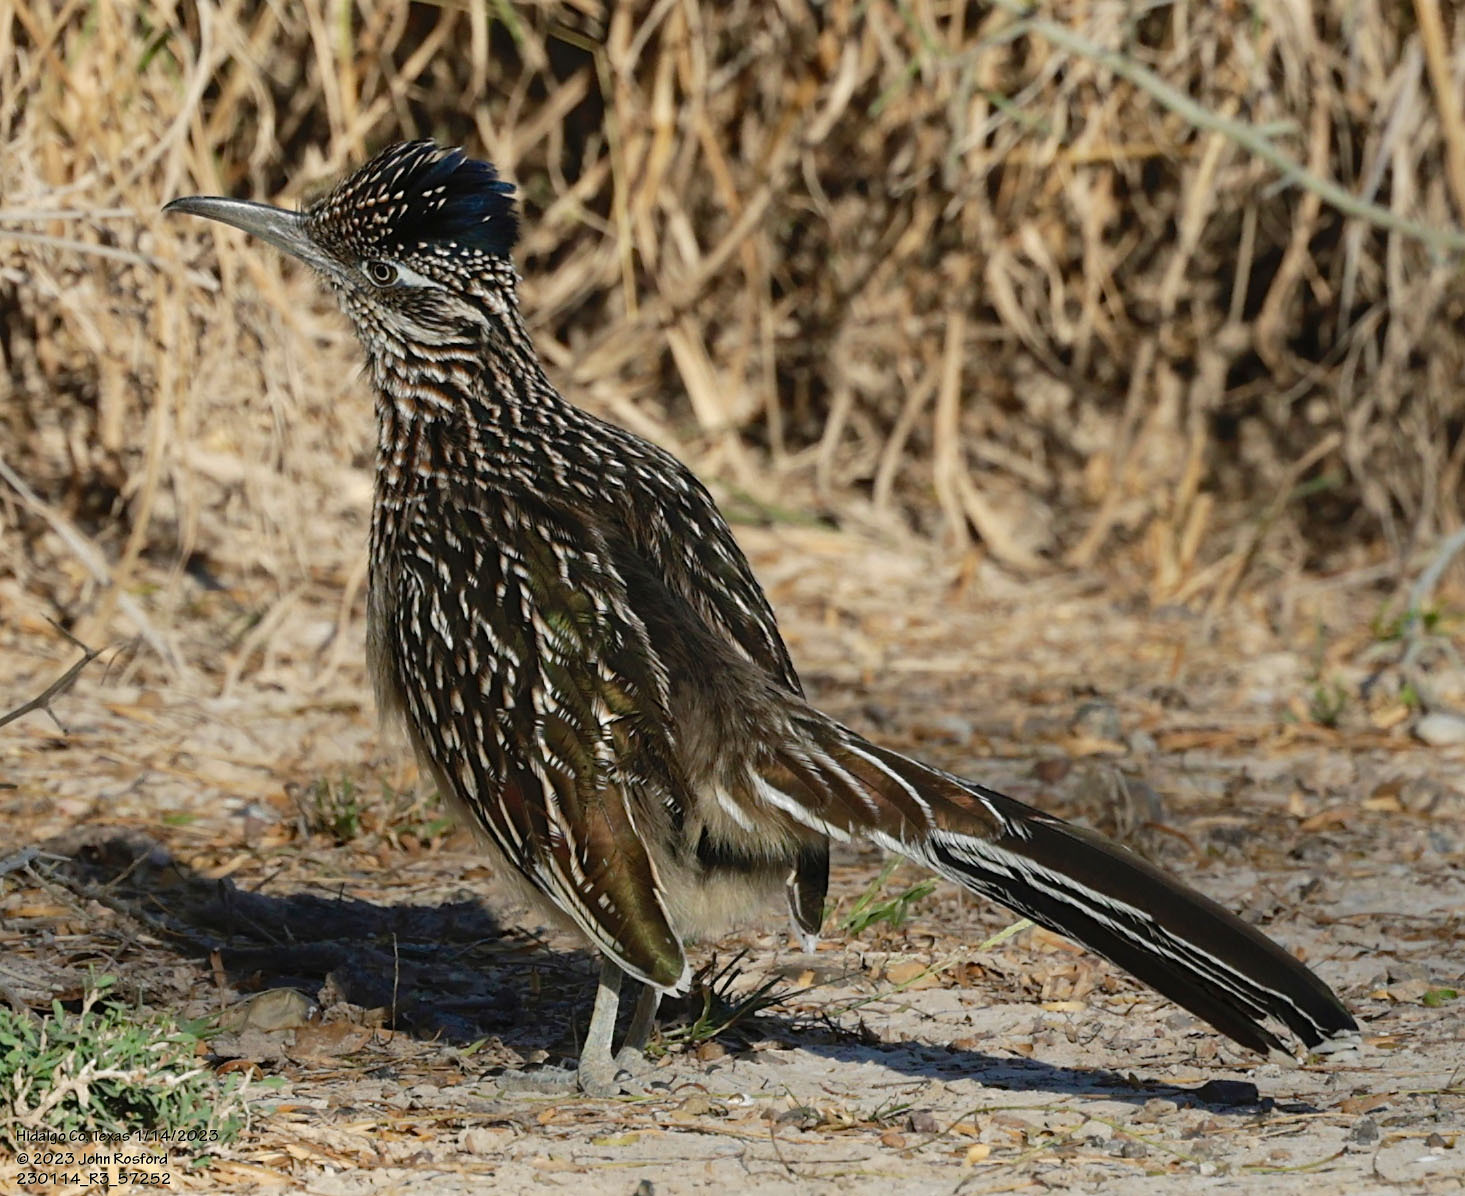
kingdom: Animalia
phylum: Chordata
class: Aves
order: Cuculiformes
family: Cuculidae
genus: Geococcyx
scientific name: Geococcyx californianus
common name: Greater roadrunner
